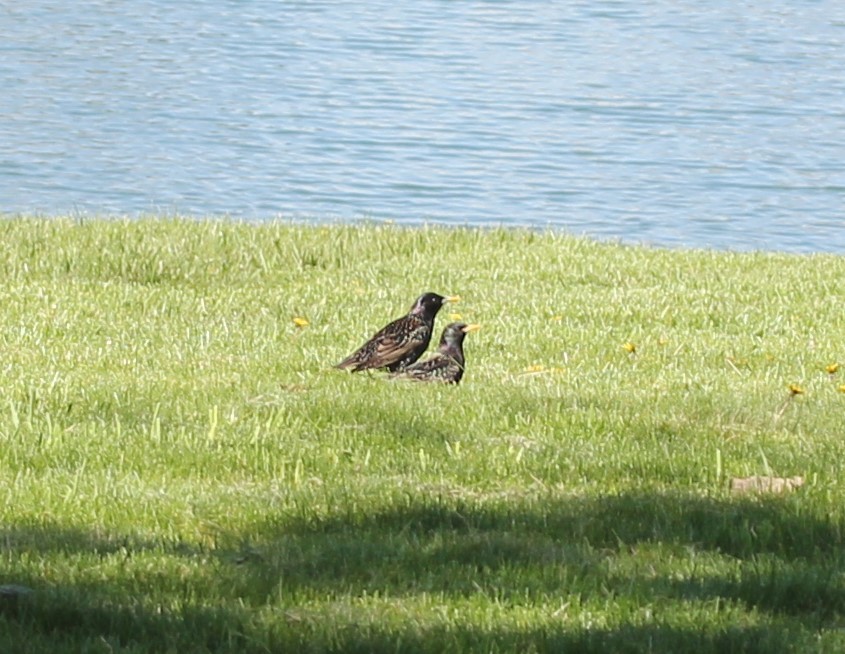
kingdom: Animalia
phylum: Chordata
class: Aves
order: Passeriformes
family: Sturnidae
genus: Sturnus
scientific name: Sturnus vulgaris
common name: Common starling
